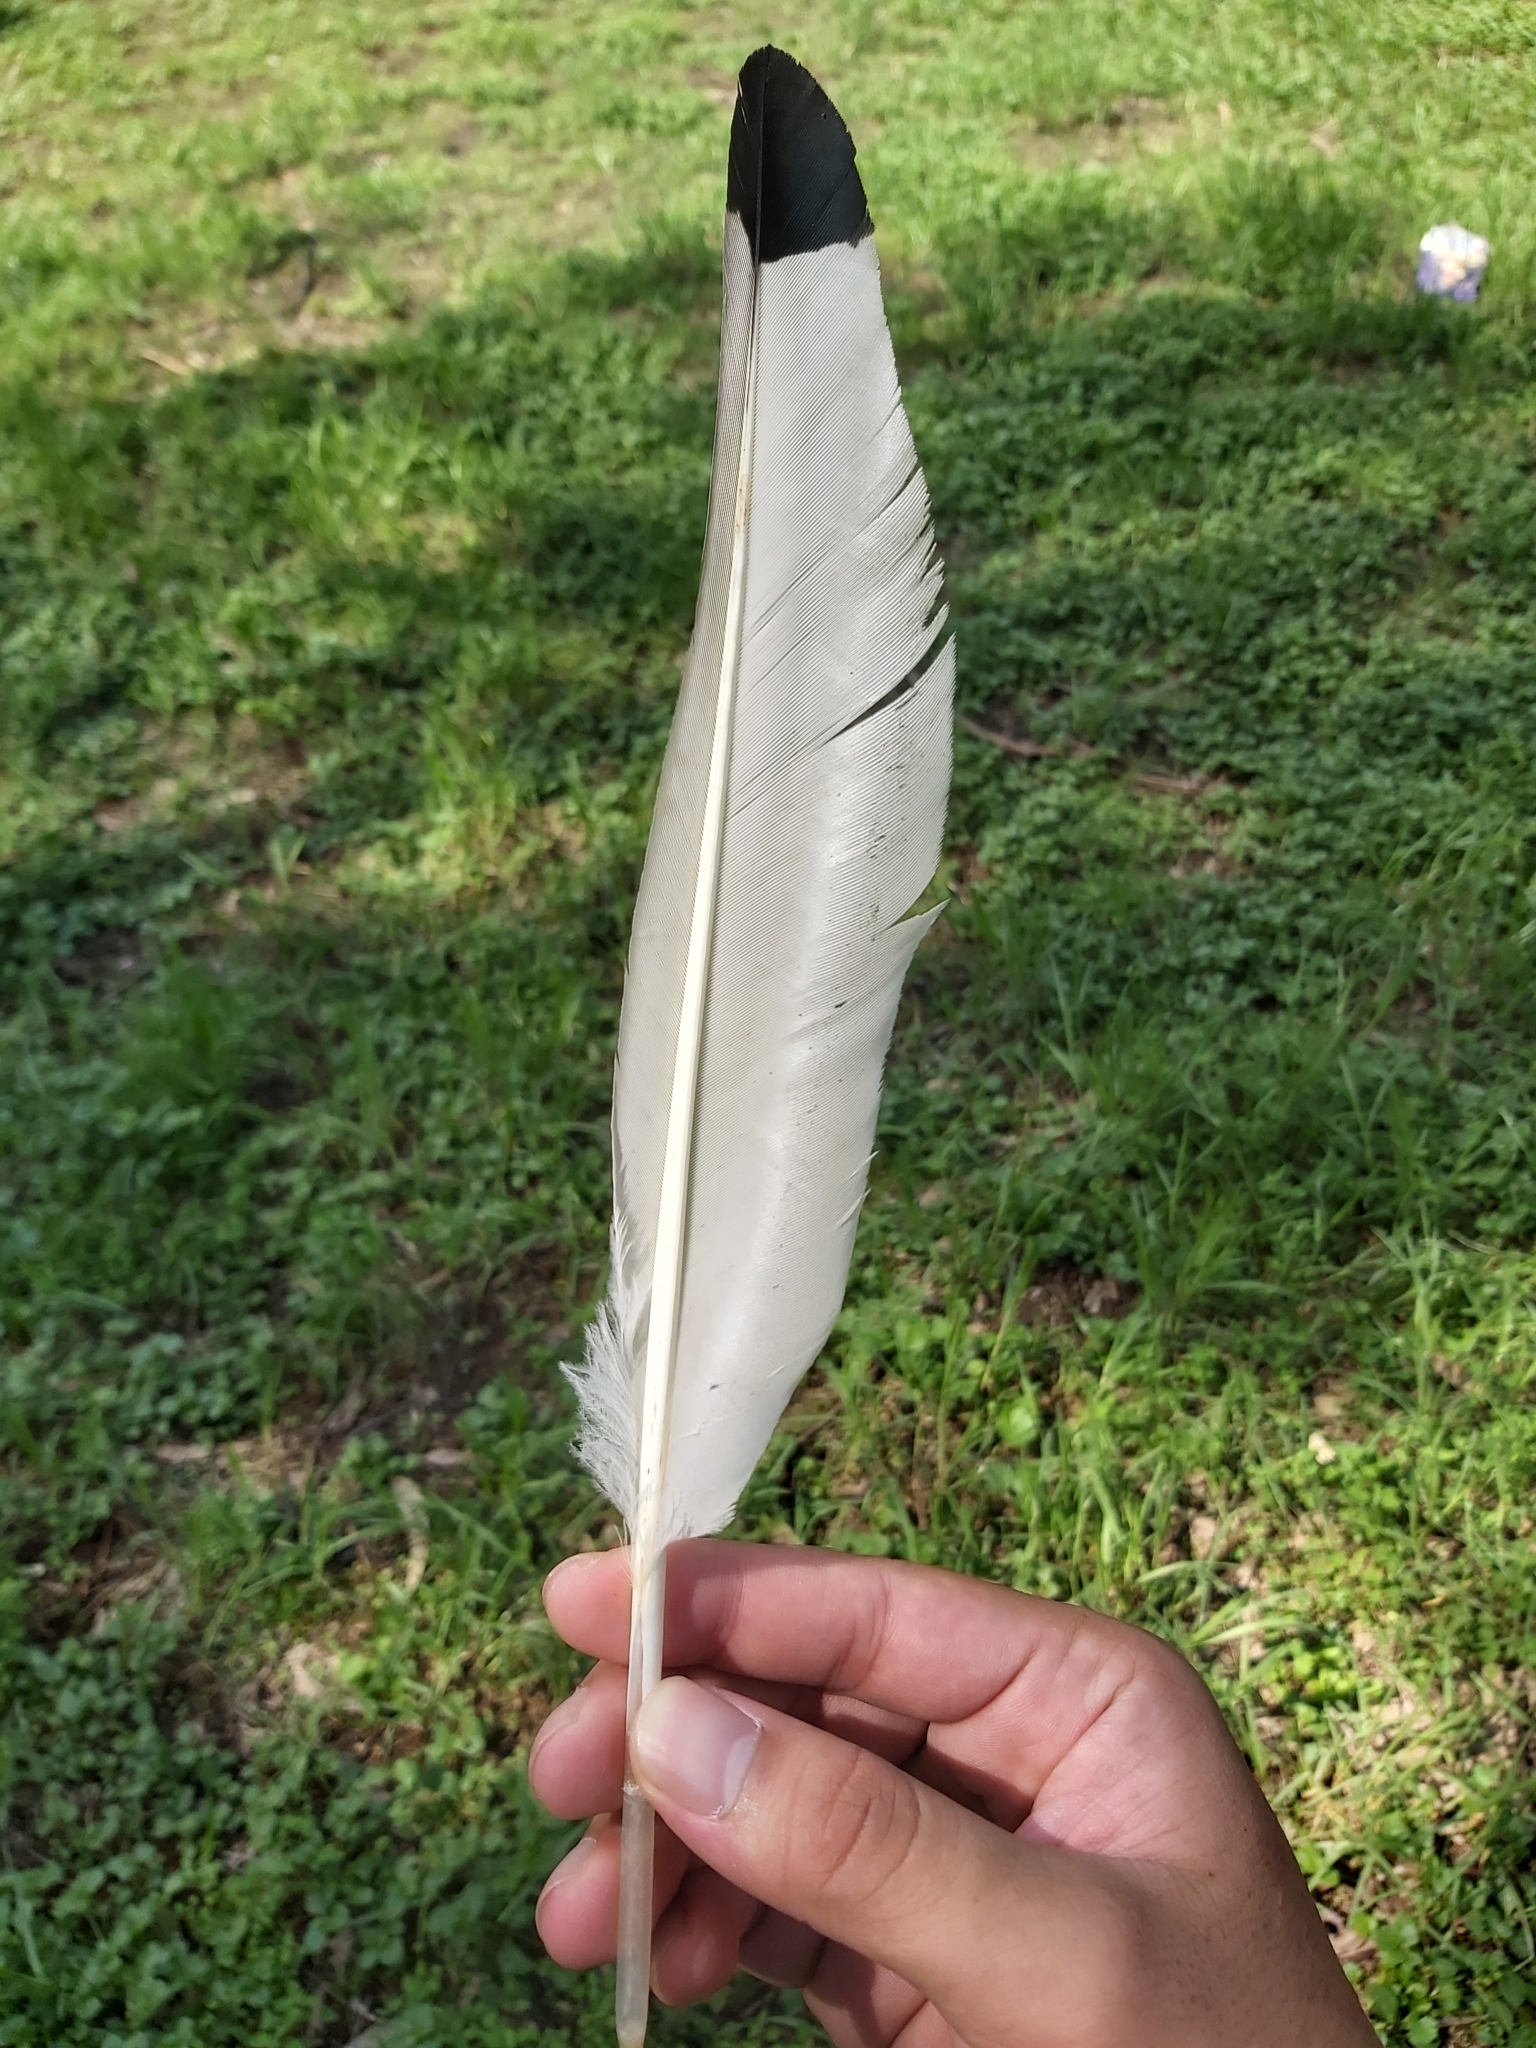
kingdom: Animalia
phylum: Chordata
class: Aves
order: Pelecaniformes
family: Threskiornithidae
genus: Threskiornis
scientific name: Threskiornis molucca
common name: Australian white ibis
